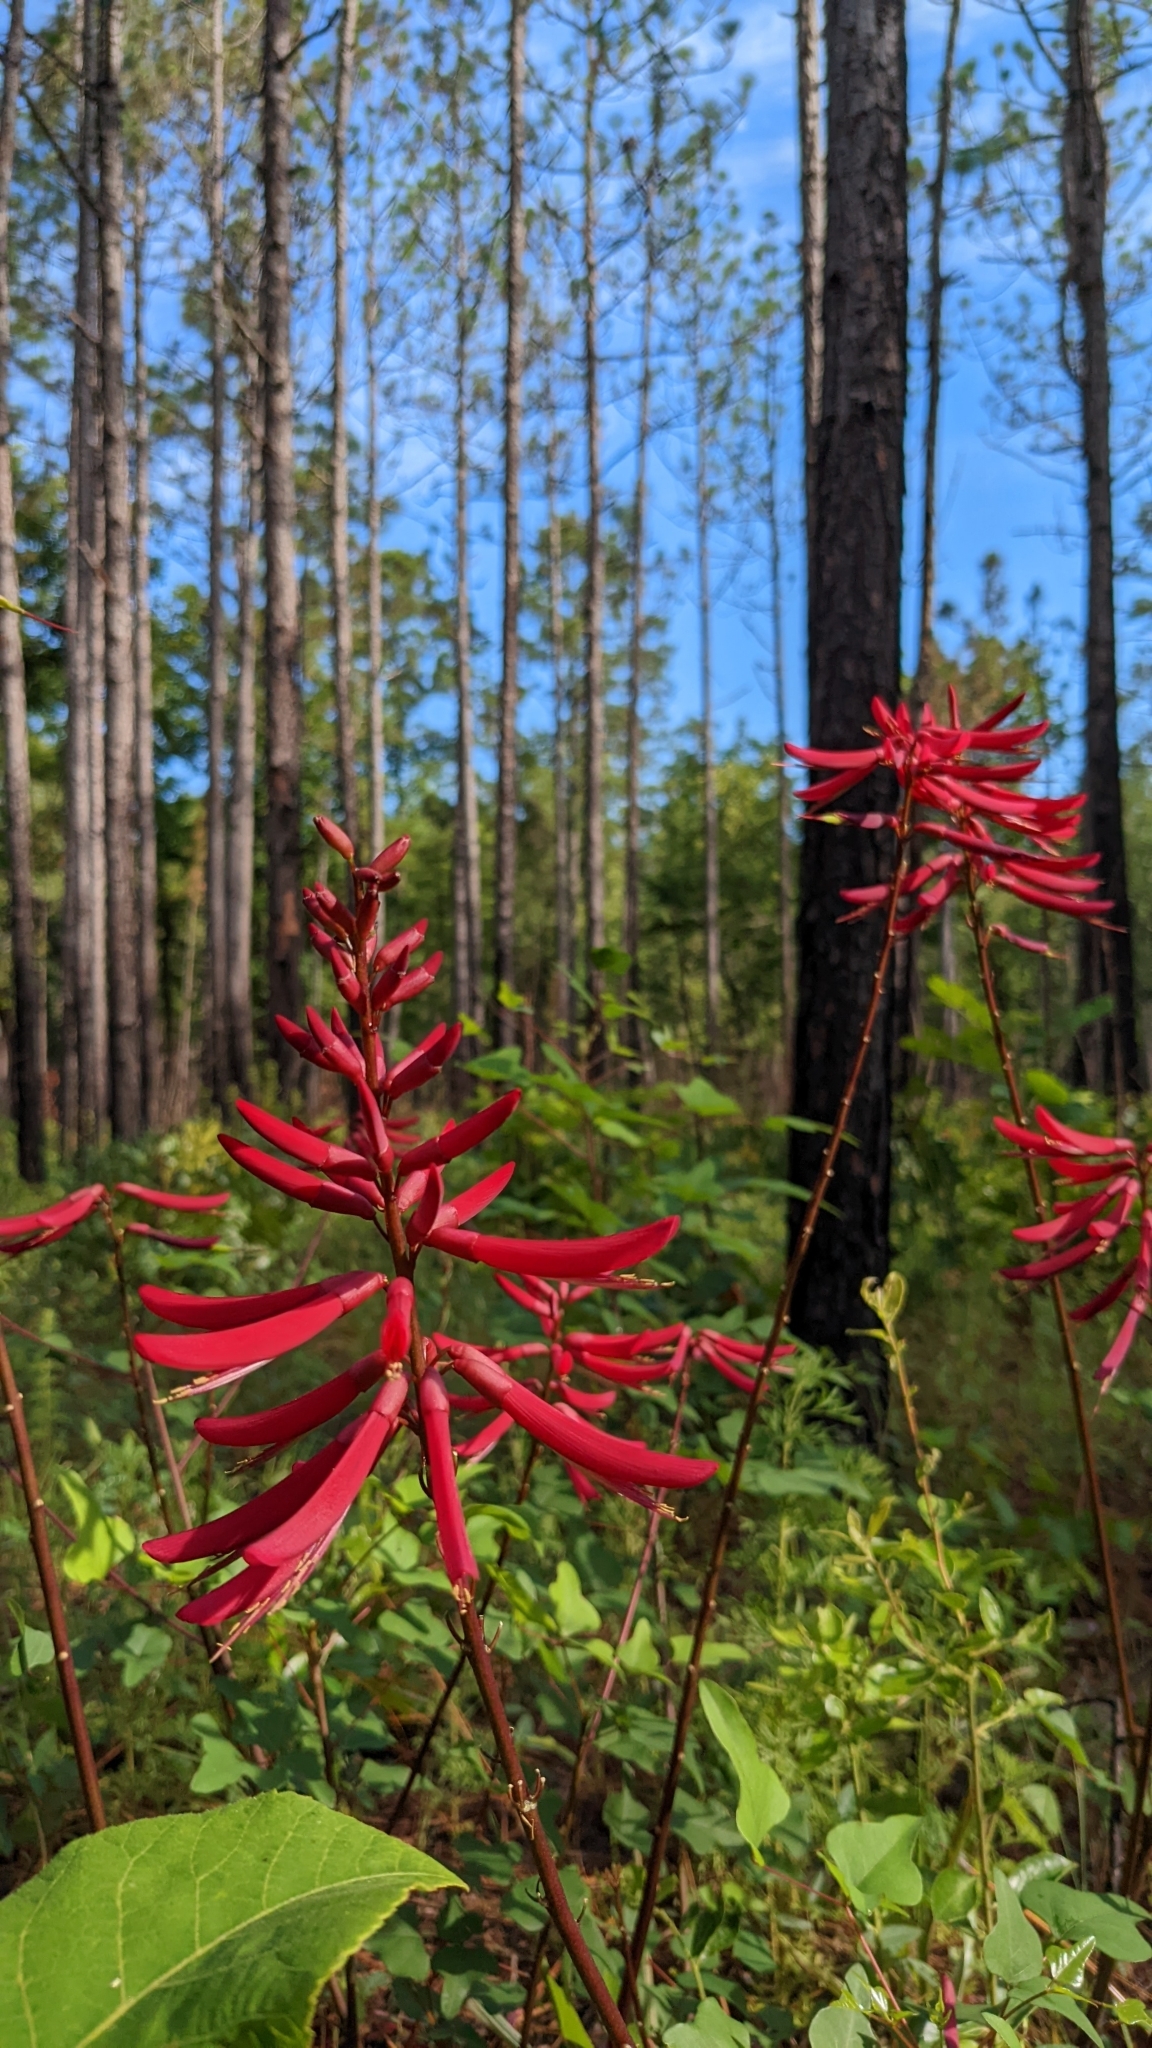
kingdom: Plantae
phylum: Tracheophyta
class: Magnoliopsida
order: Fabales
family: Fabaceae
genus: Erythrina
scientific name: Erythrina herbacea
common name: Coral-bean
